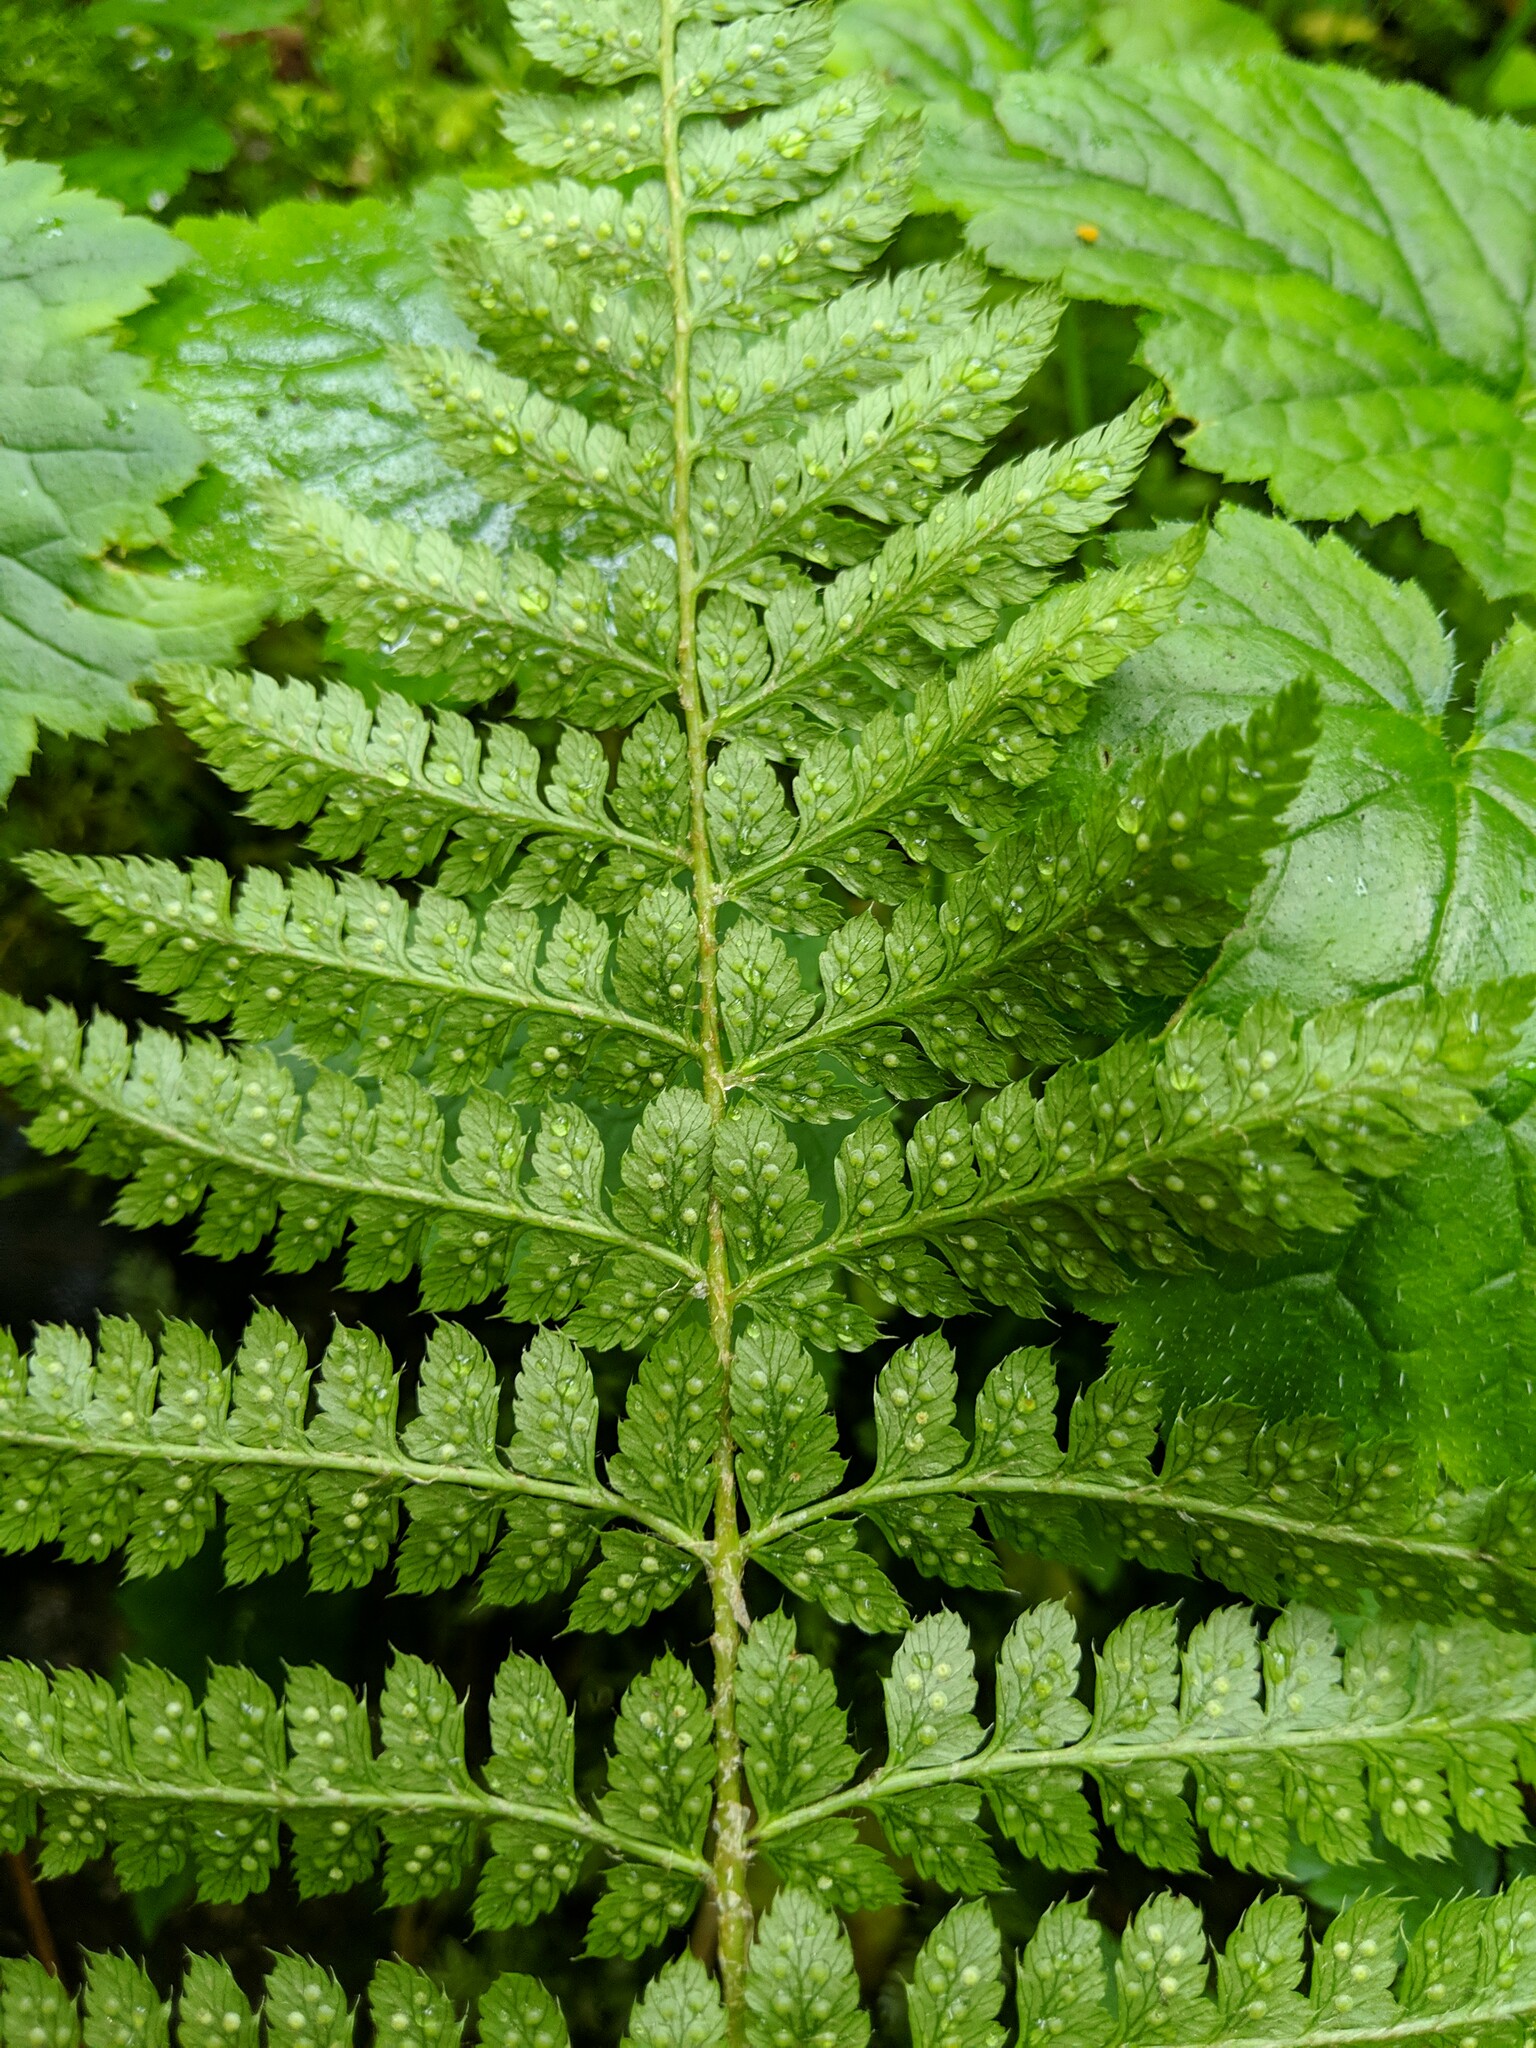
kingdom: Plantae
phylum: Tracheophyta
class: Polypodiopsida
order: Polypodiales
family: Dryopteridaceae
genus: Polystichum
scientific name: Polystichum braunii
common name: Braun's holly fern
